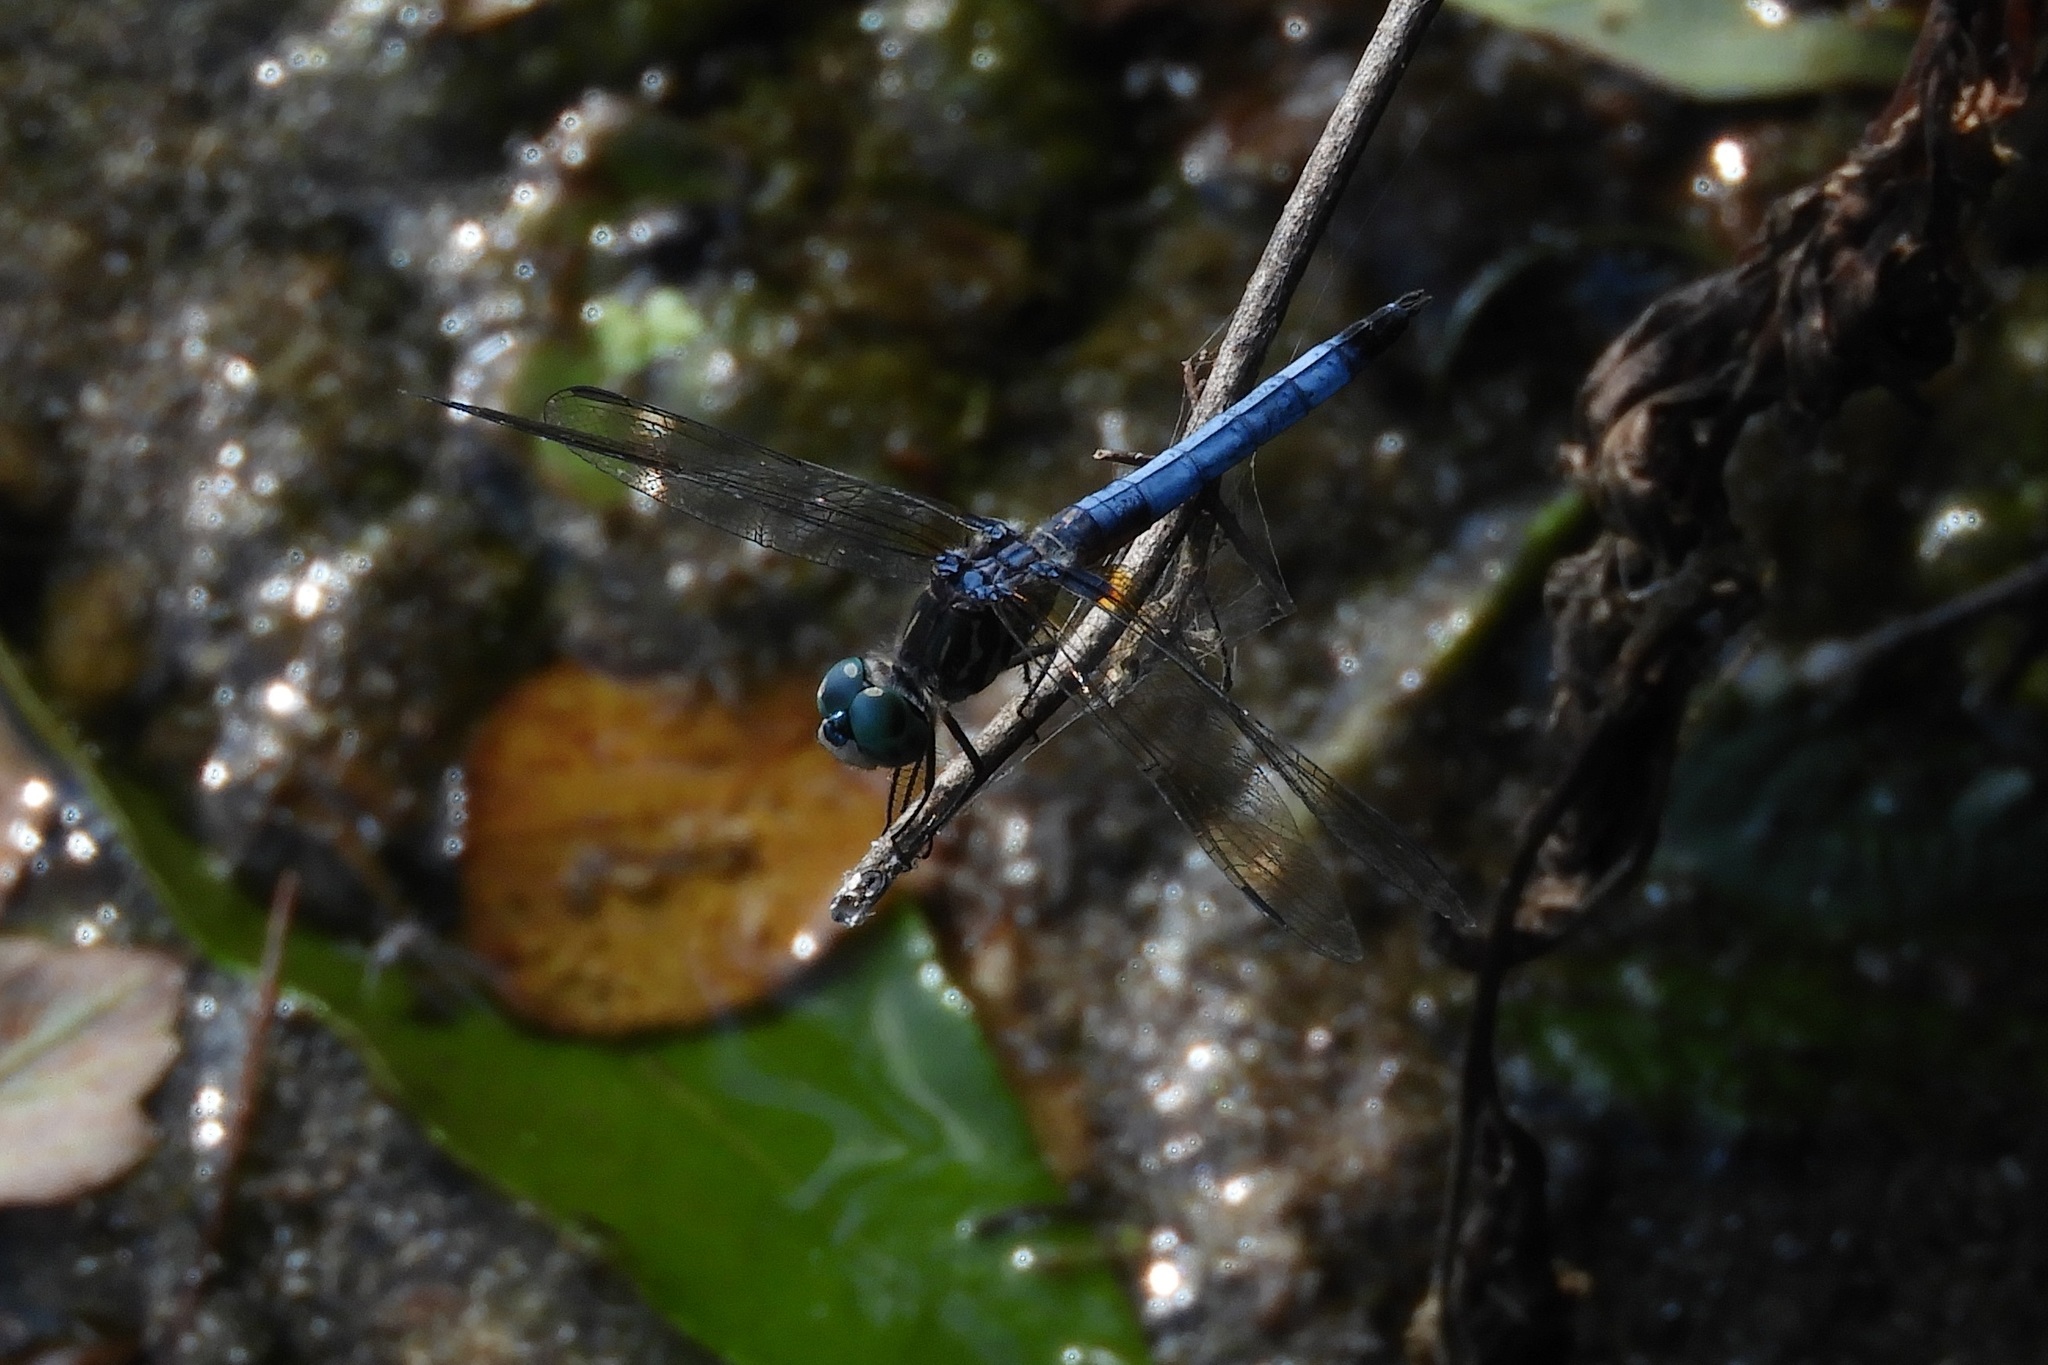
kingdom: Animalia
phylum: Arthropoda
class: Insecta
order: Odonata
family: Libellulidae
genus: Pachydiplax
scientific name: Pachydiplax longipennis
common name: Blue dasher
